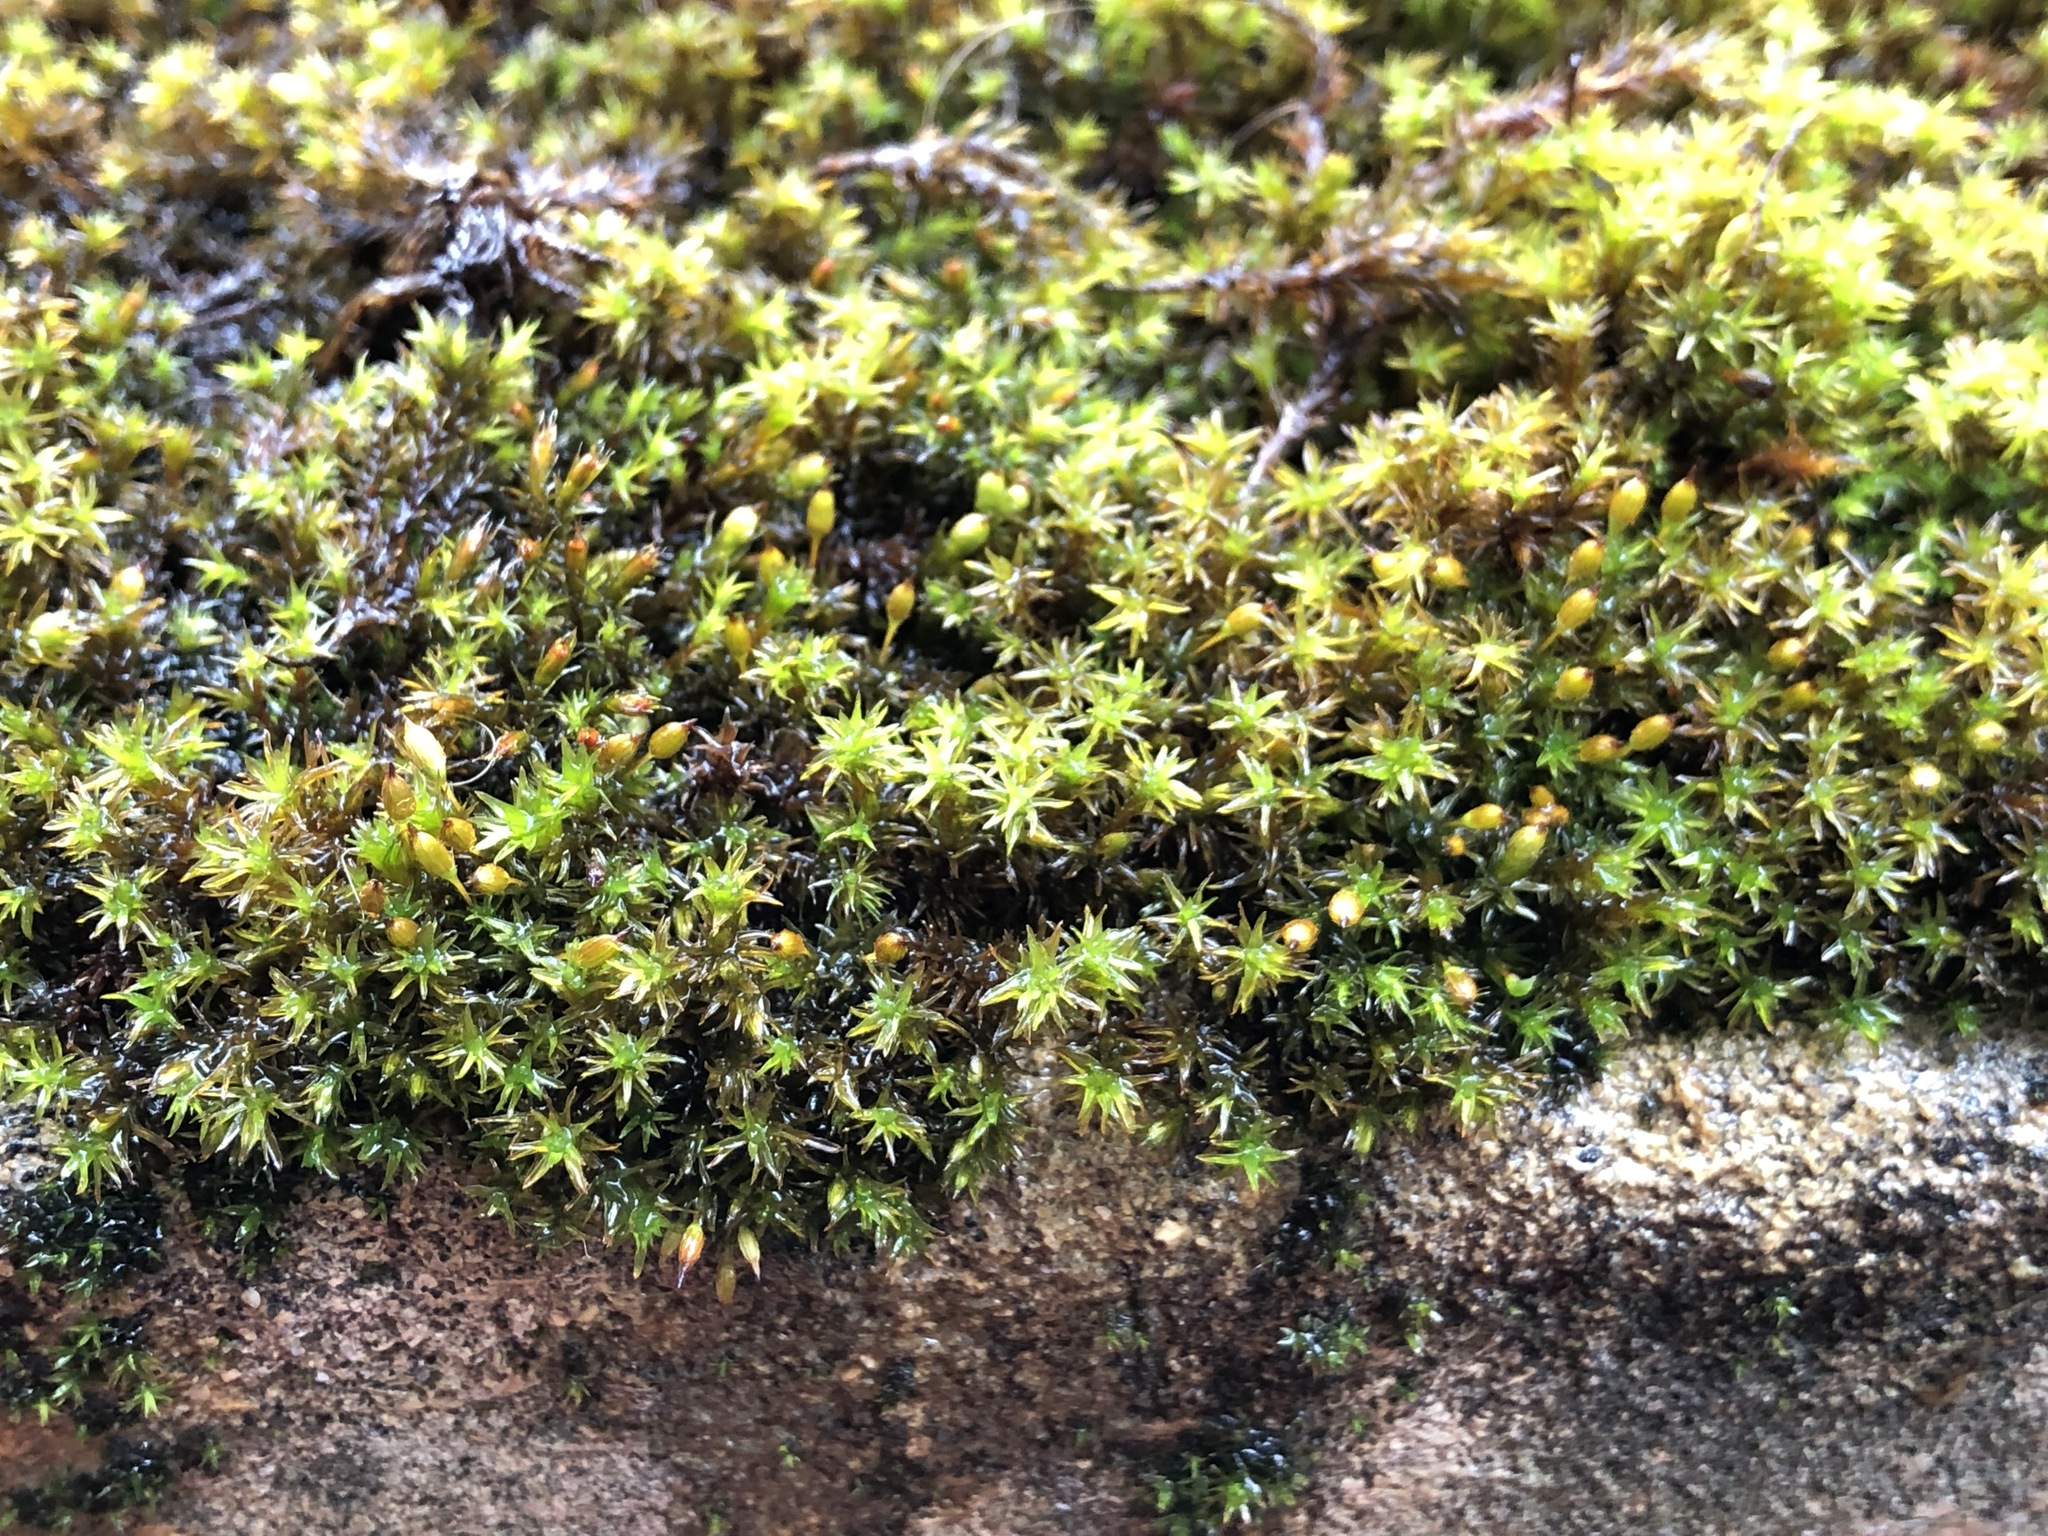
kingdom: Plantae
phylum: Bryophyta
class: Bryopsida
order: Orthotrichales
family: Orthotrichaceae
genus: Orthotrichum
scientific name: Orthotrichum anomalum
